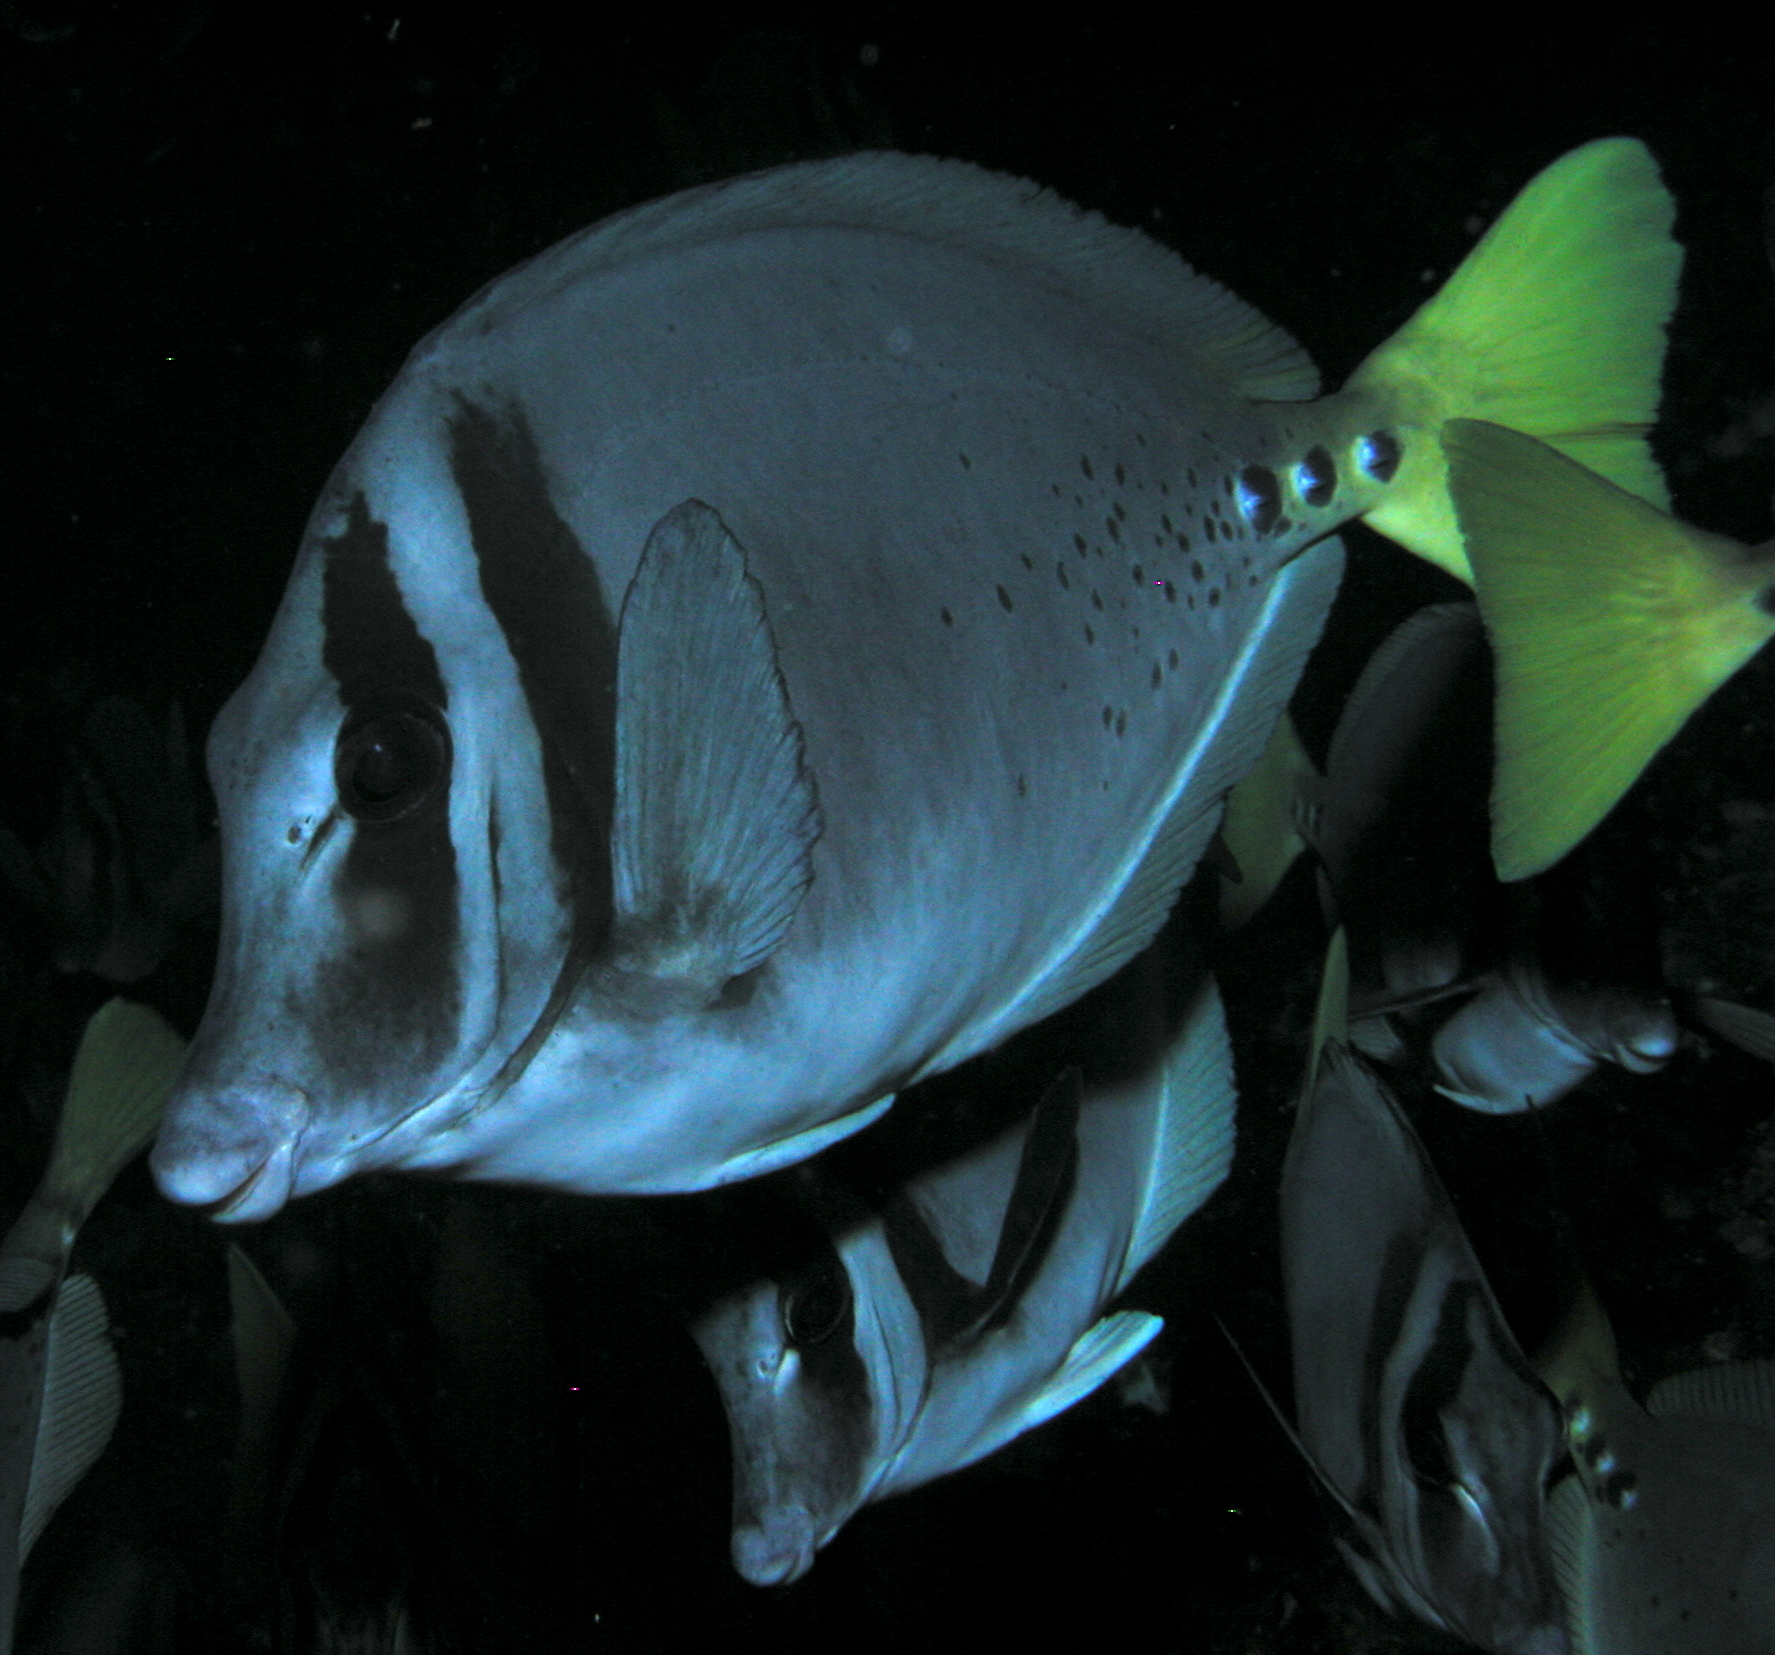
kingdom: Animalia
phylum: Chordata
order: Perciformes
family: Acanthuridae
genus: Prionurus
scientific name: Prionurus laticlavius
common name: Razor surgeonfish
